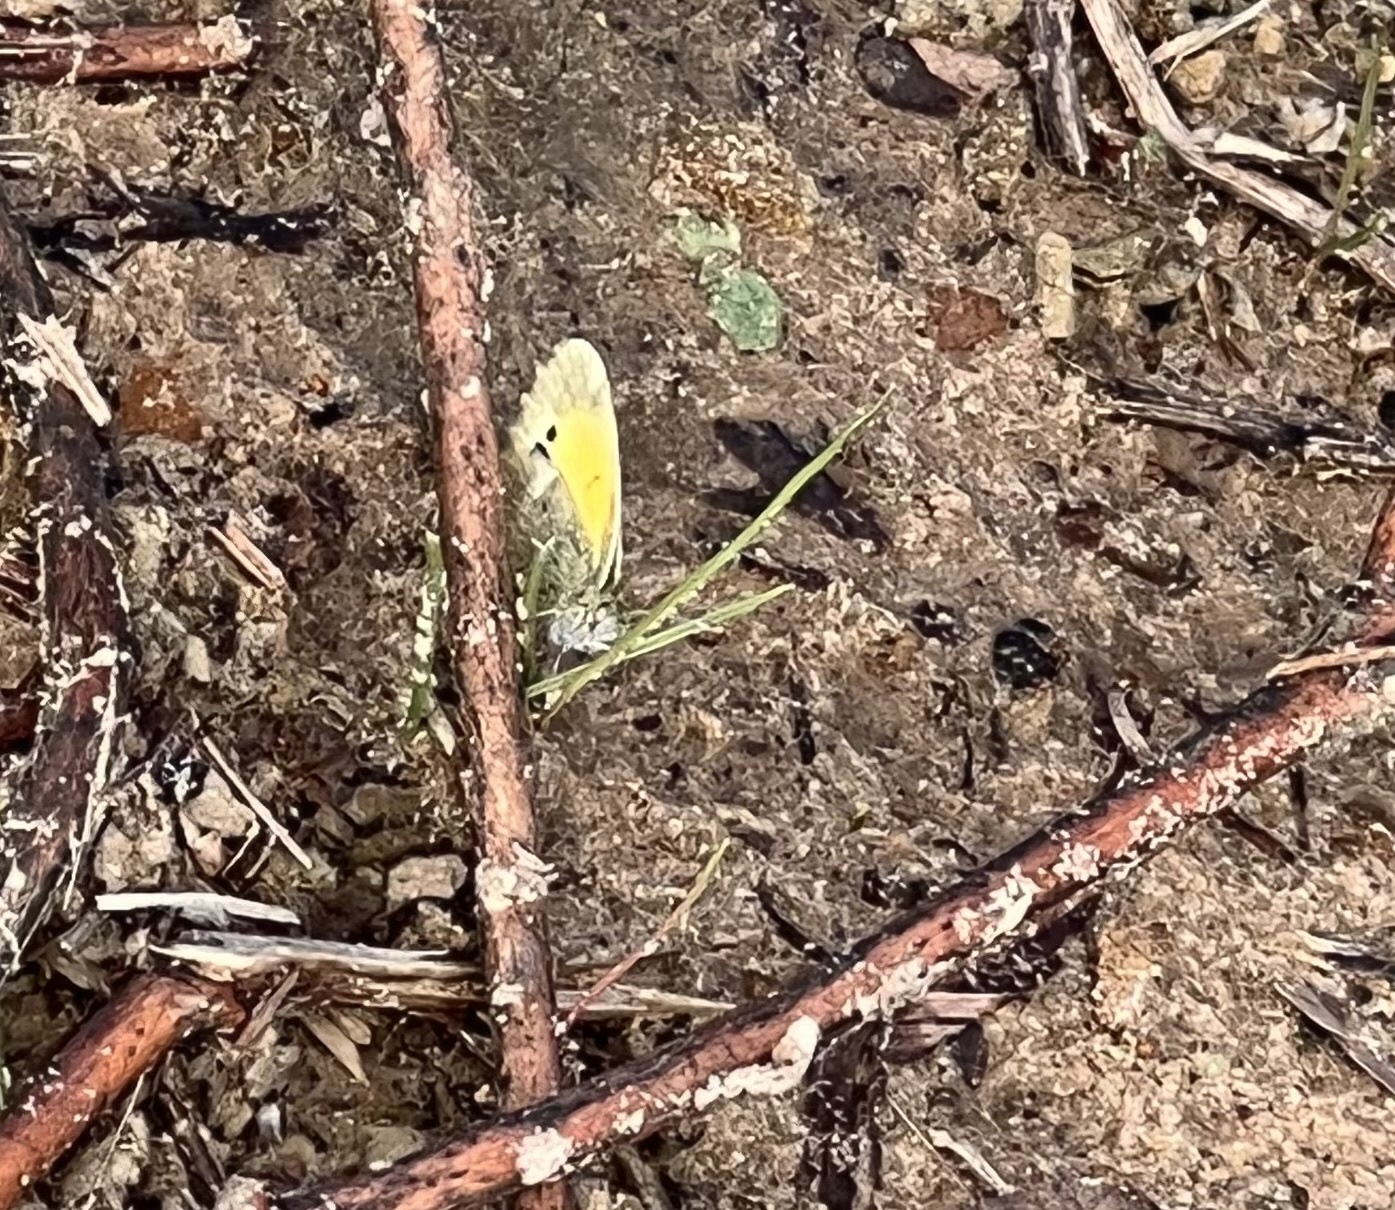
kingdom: Animalia
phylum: Arthropoda
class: Insecta
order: Lepidoptera
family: Pieridae
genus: Nathalis
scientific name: Nathalis iole
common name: Dainty sulphur
